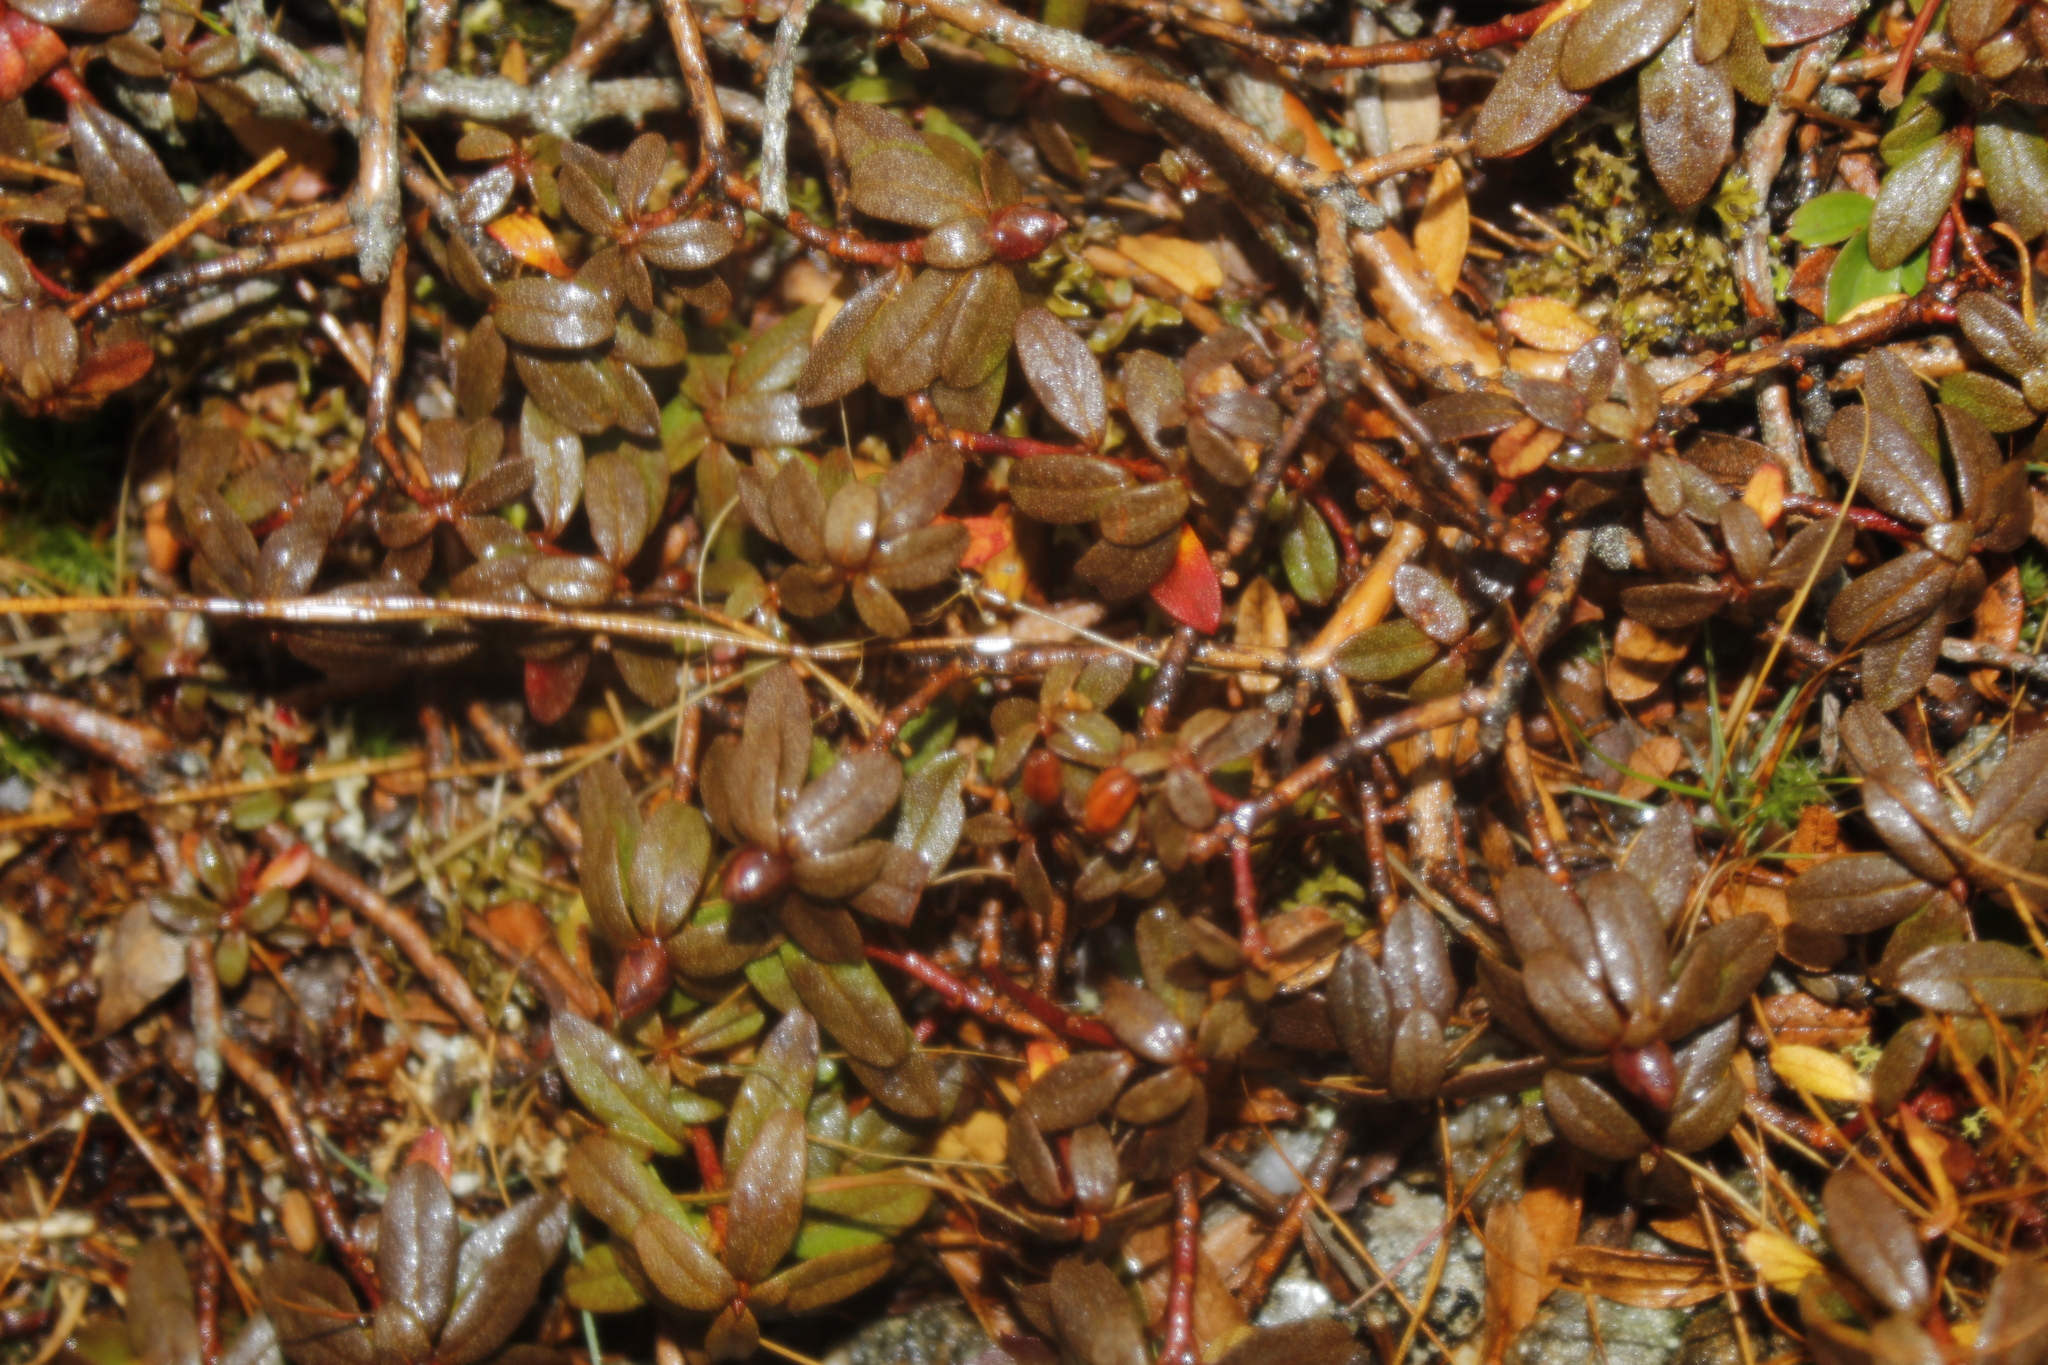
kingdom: Plantae
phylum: Tracheophyta
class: Magnoliopsida
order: Ericales
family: Ericaceae
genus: Rhododendron
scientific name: Rhododendron lapponicum
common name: Lapland rhododendron
